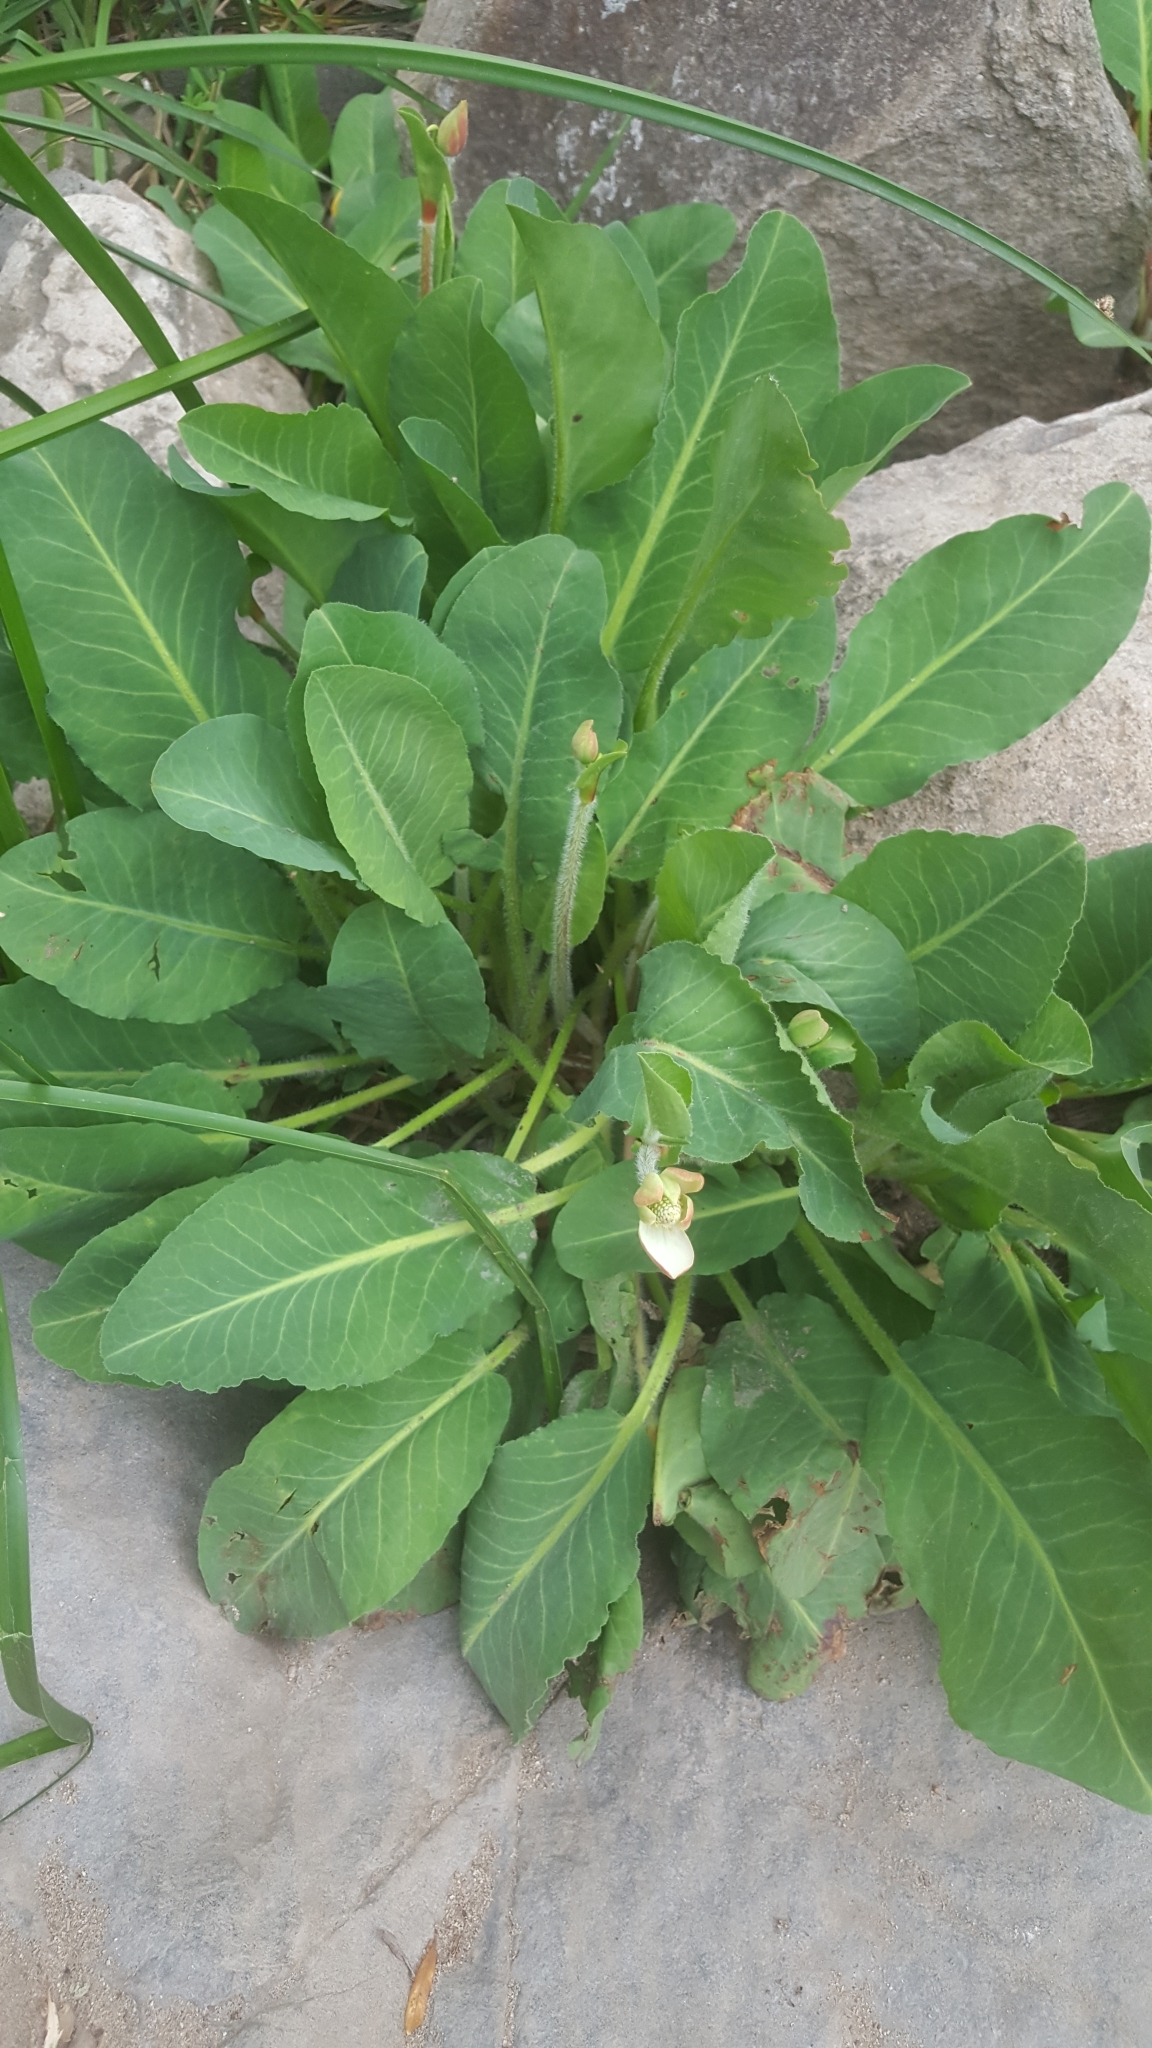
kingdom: Plantae
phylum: Tracheophyta
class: Magnoliopsida
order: Piperales
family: Saururaceae
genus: Anemopsis
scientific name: Anemopsis californica
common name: Apache-beads
